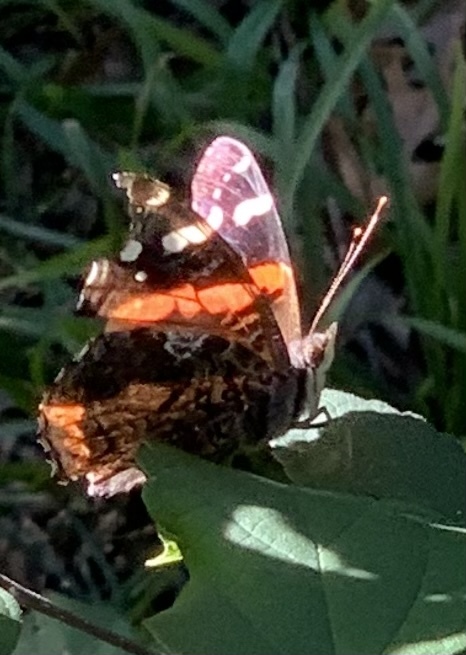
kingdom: Animalia
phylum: Arthropoda
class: Insecta
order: Lepidoptera
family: Nymphalidae
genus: Vanessa
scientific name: Vanessa atalanta
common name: Red admiral
